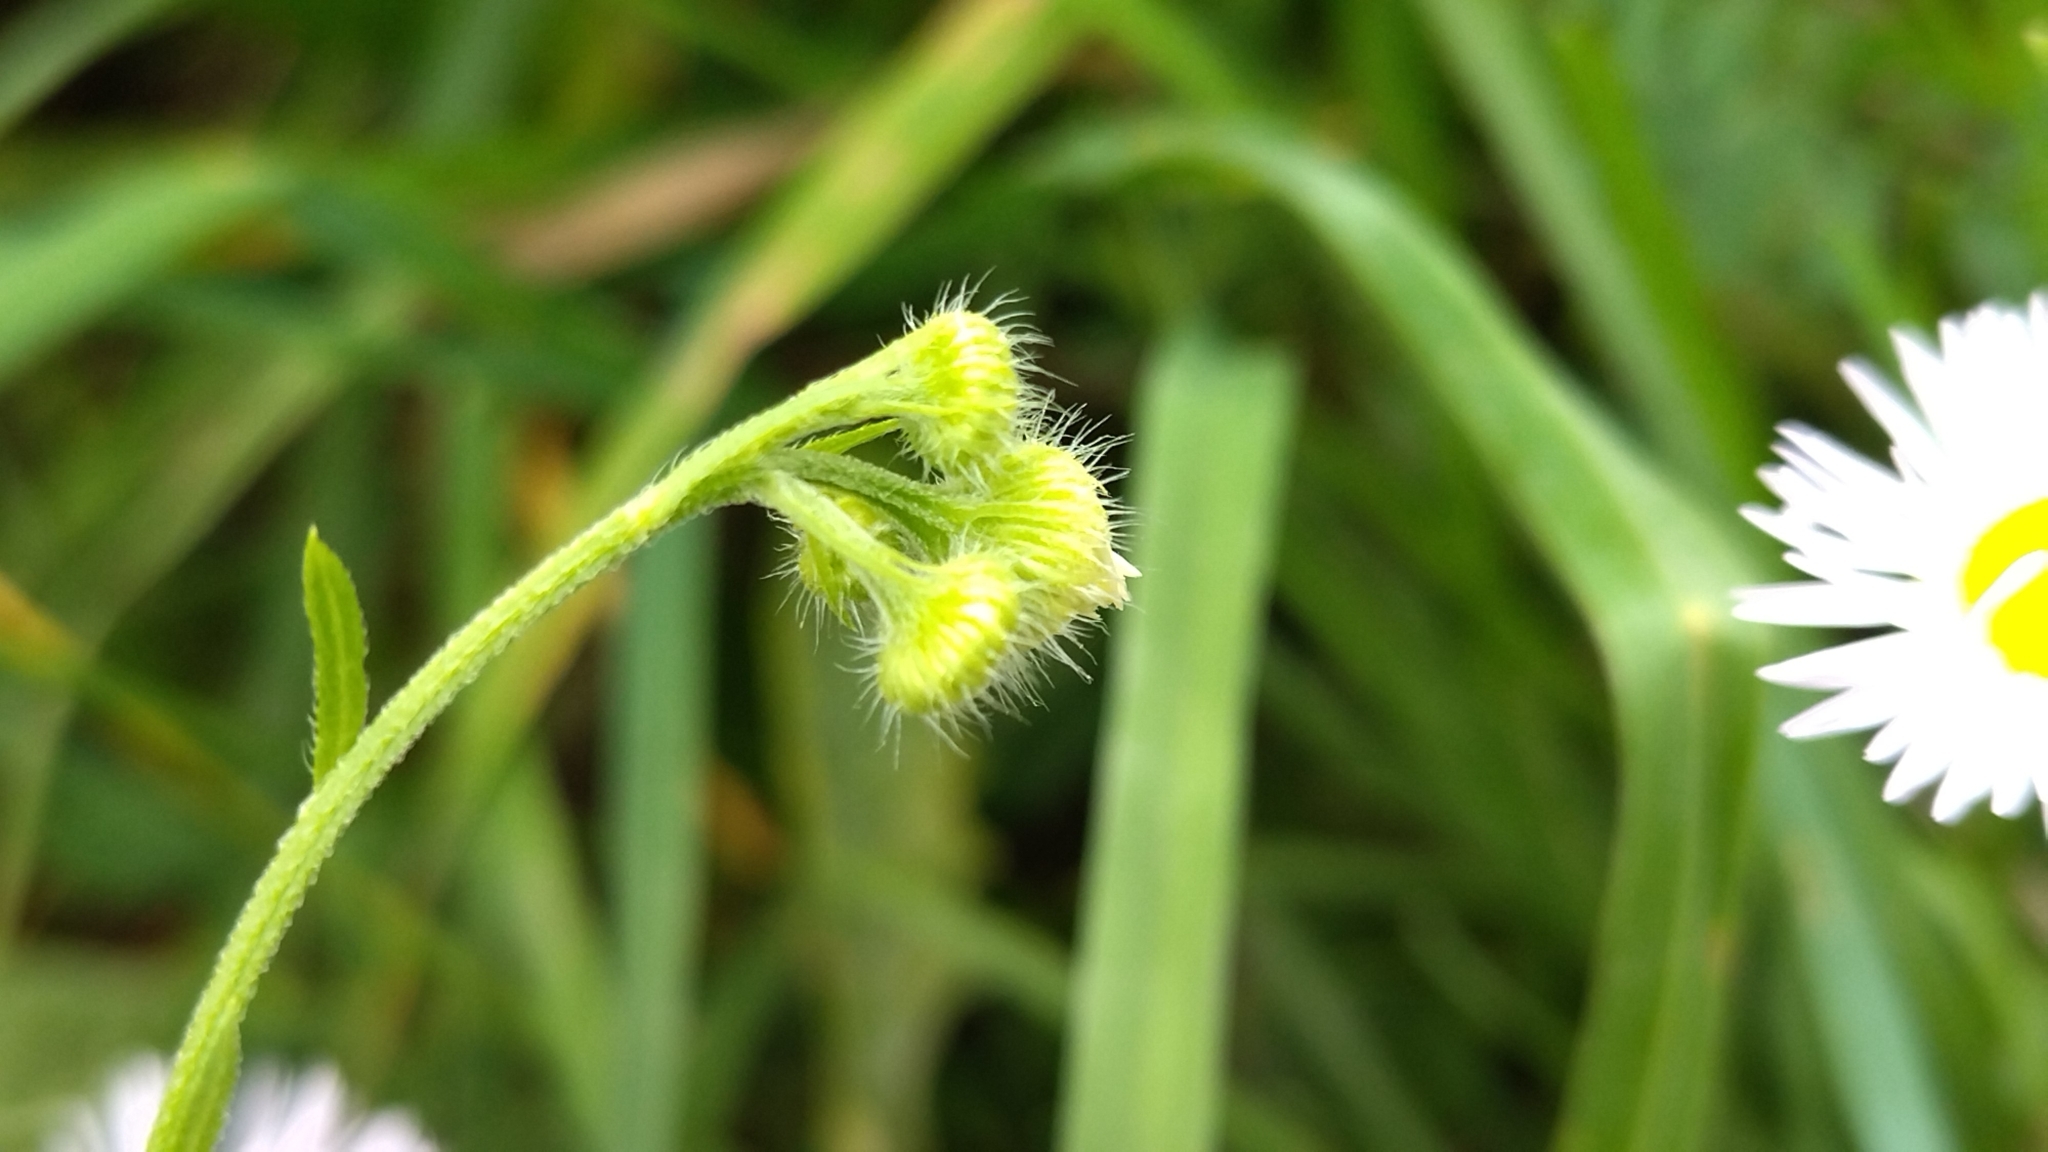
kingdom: Plantae
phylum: Tracheophyta
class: Magnoliopsida
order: Asterales
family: Asteraceae
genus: Erigeron
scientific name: Erigeron annuus
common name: Tall fleabane
